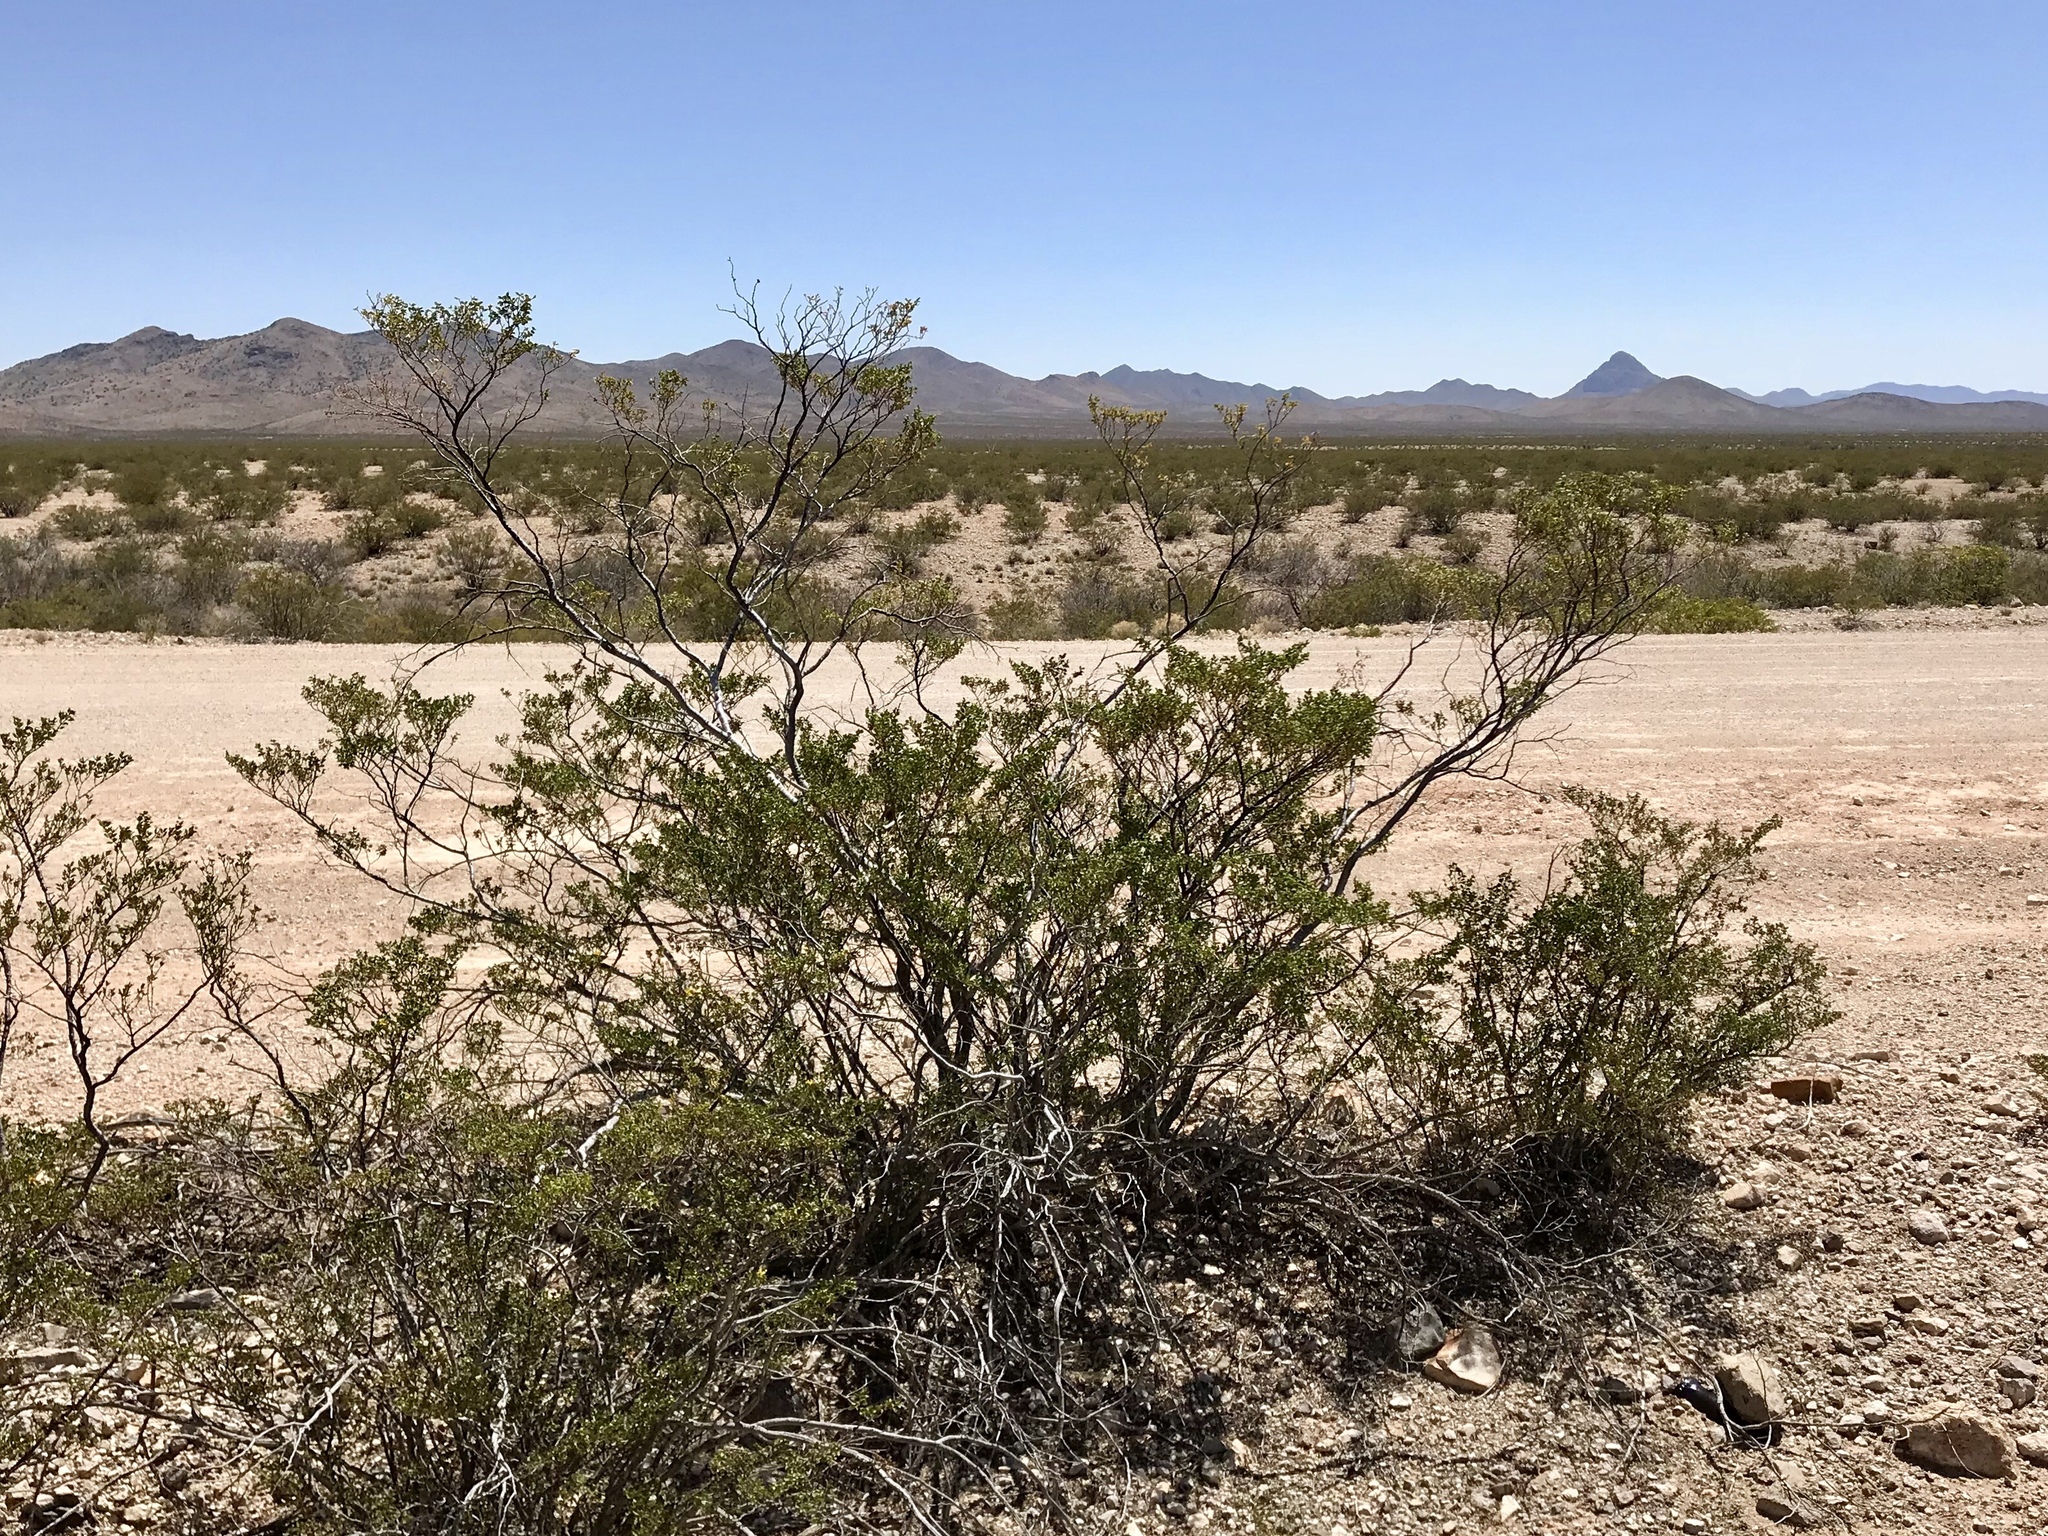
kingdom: Plantae
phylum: Tracheophyta
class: Magnoliopsida
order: Zygophyllales
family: Zygophyllaceae
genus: Larrea
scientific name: Larrea tridentata
